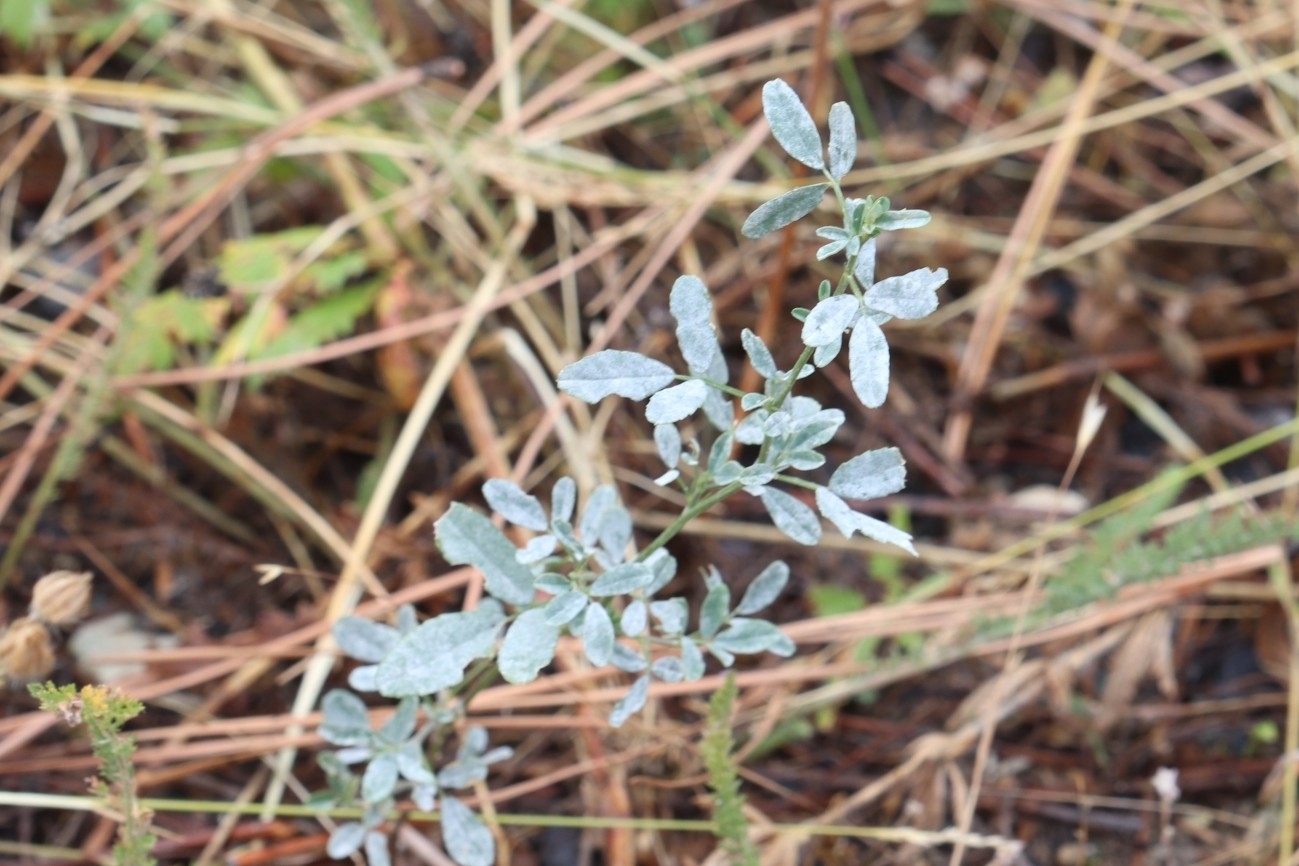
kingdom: Plantae
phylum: Tracheophyta
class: Magnoliopsida
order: Fabales
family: Fabaceae
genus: Medicago
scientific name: Medicago sativa
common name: Alfalfa
